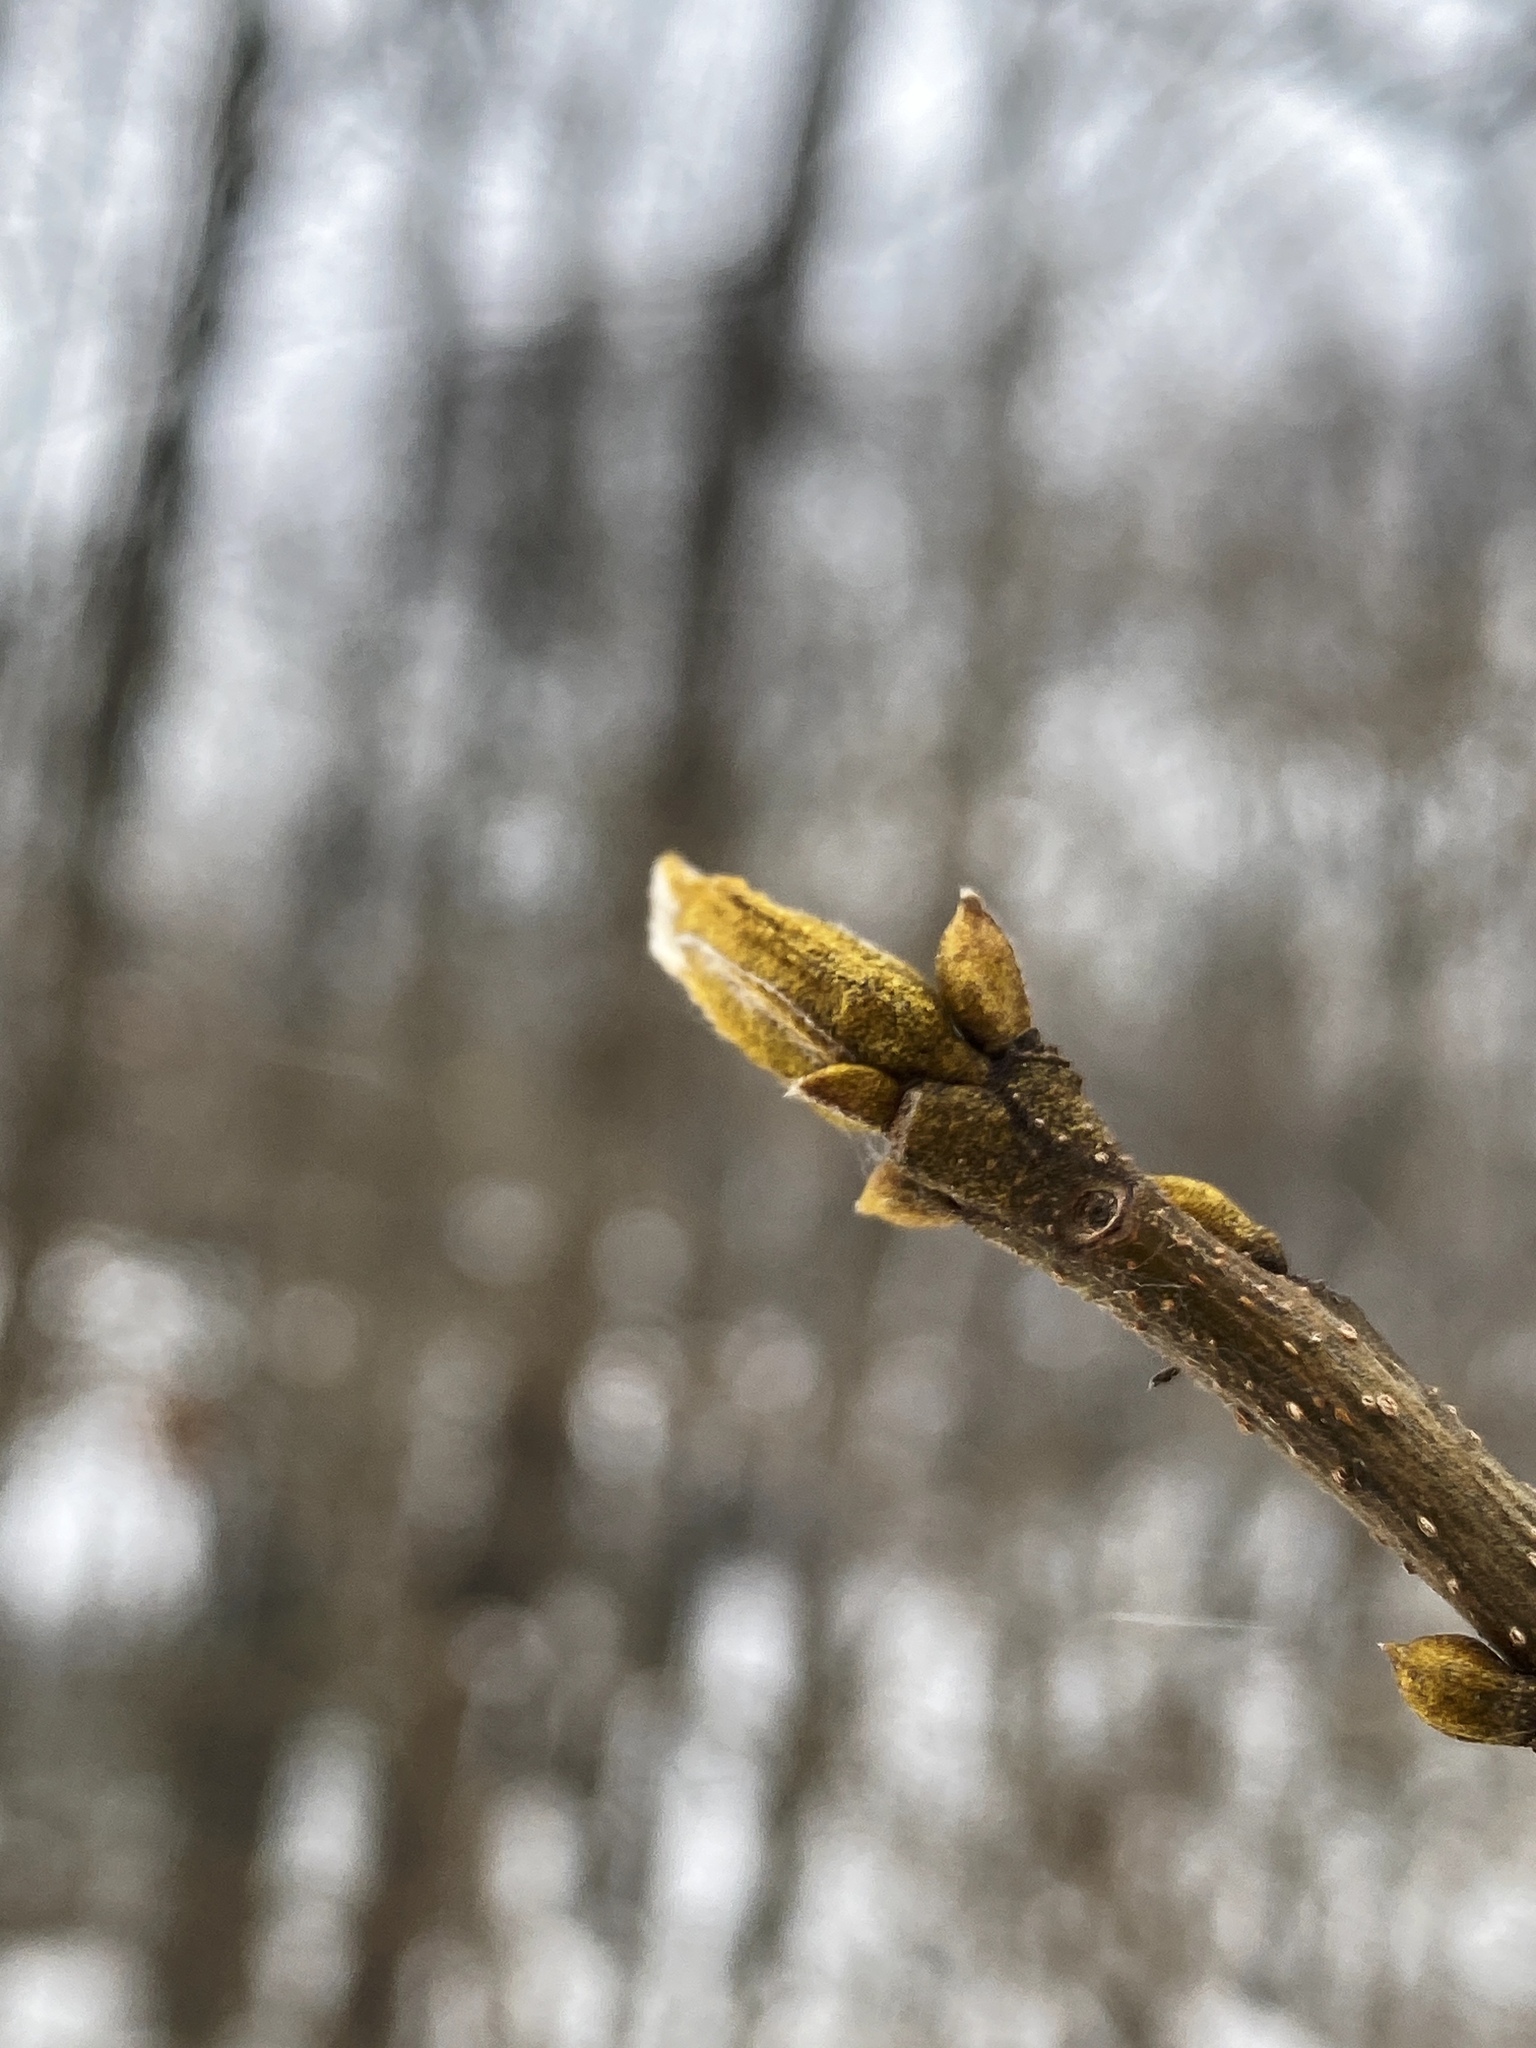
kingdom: Plantae
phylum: Tracheophyta
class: Magnoliopsida
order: Fagales
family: Juglandaceae
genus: Carya
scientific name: Carya cordiformis
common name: Bitternut hickory
